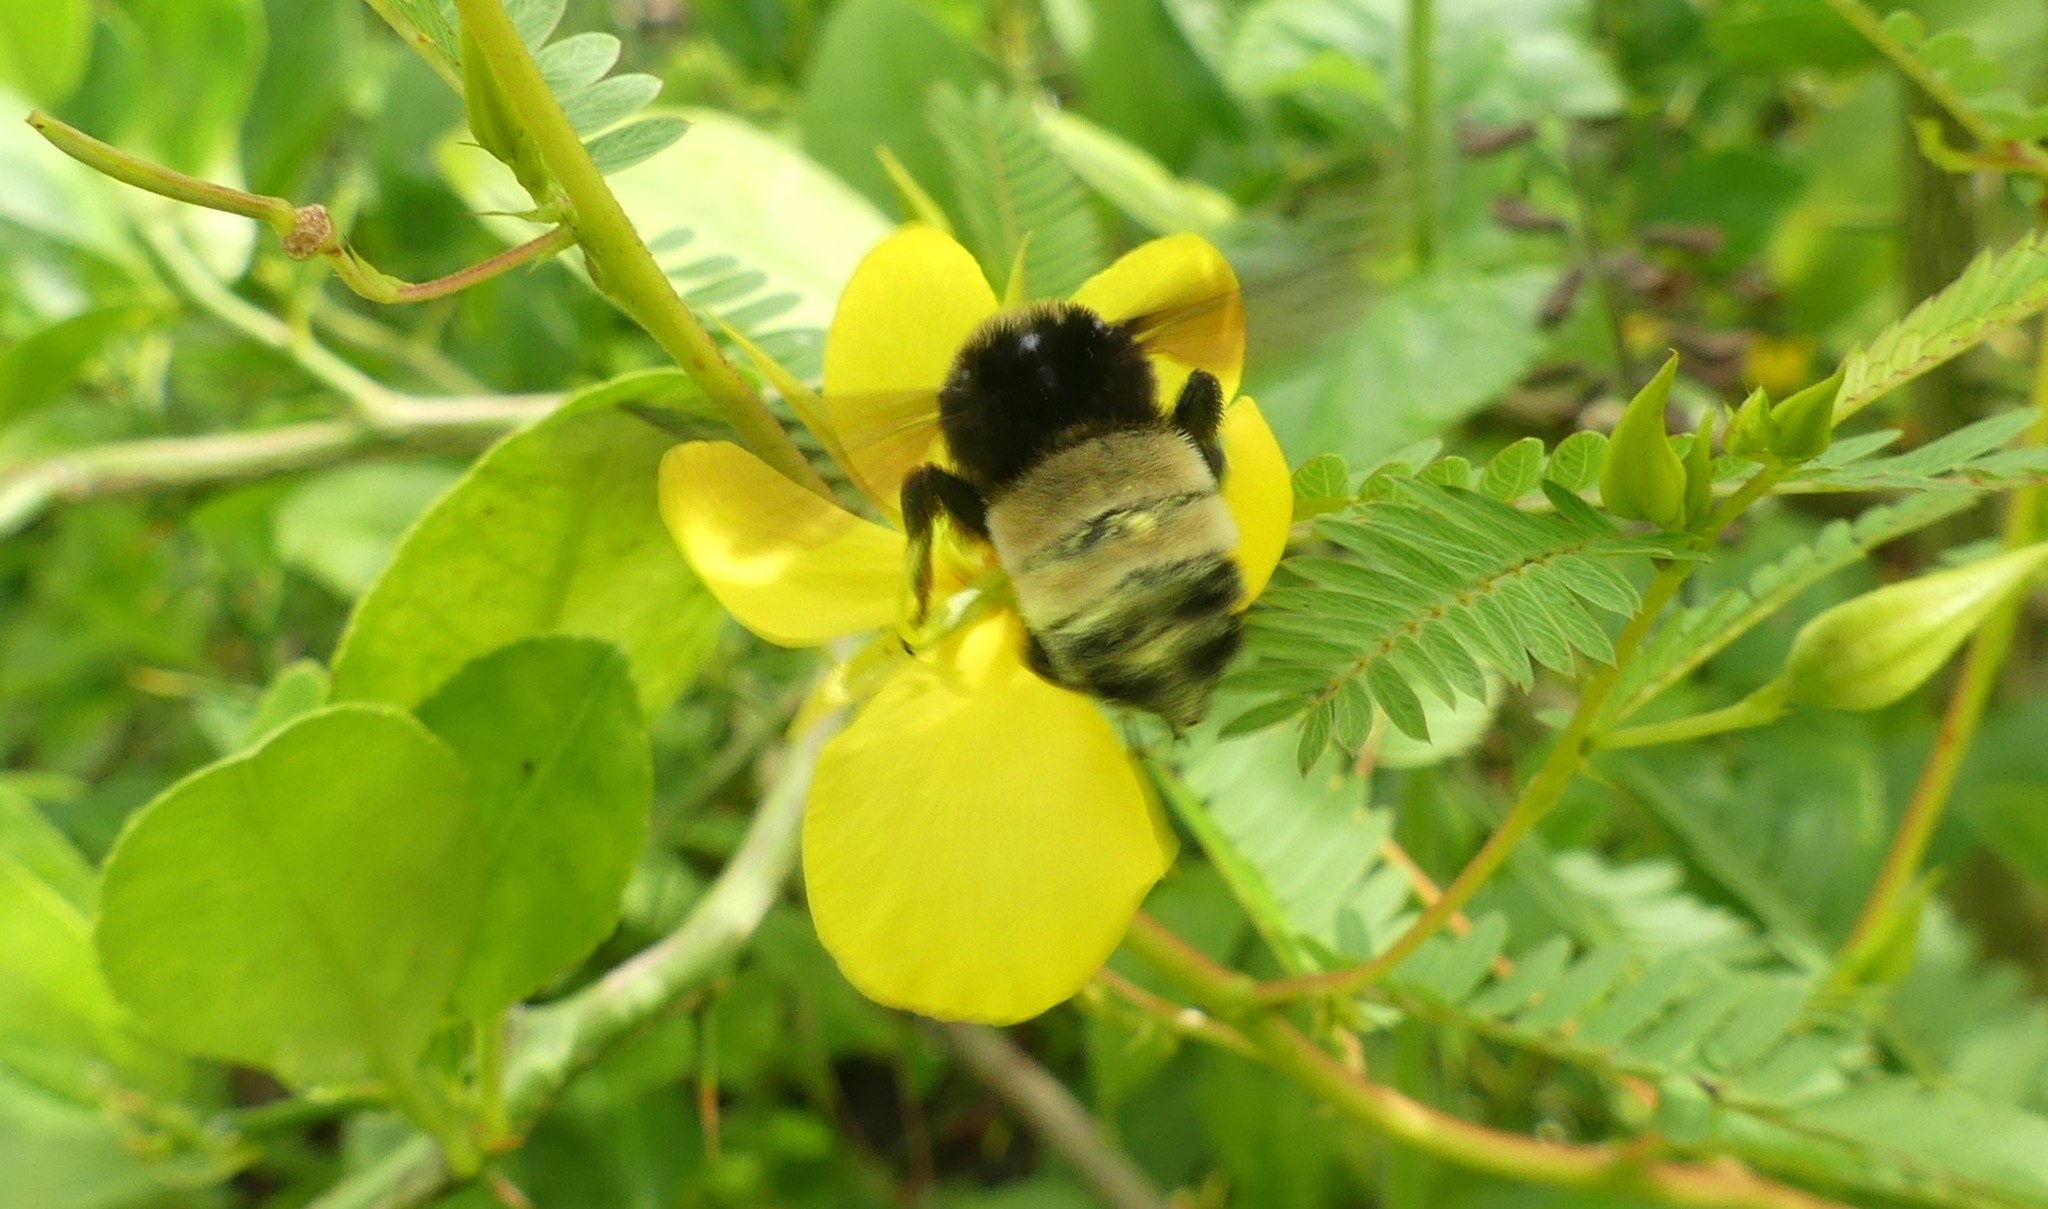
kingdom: Animalia
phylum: Arthropoda
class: Insecta
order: Hymenoptera
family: Apidae
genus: Bombus
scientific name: Bombus pensylvanicus
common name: Bumble bee
